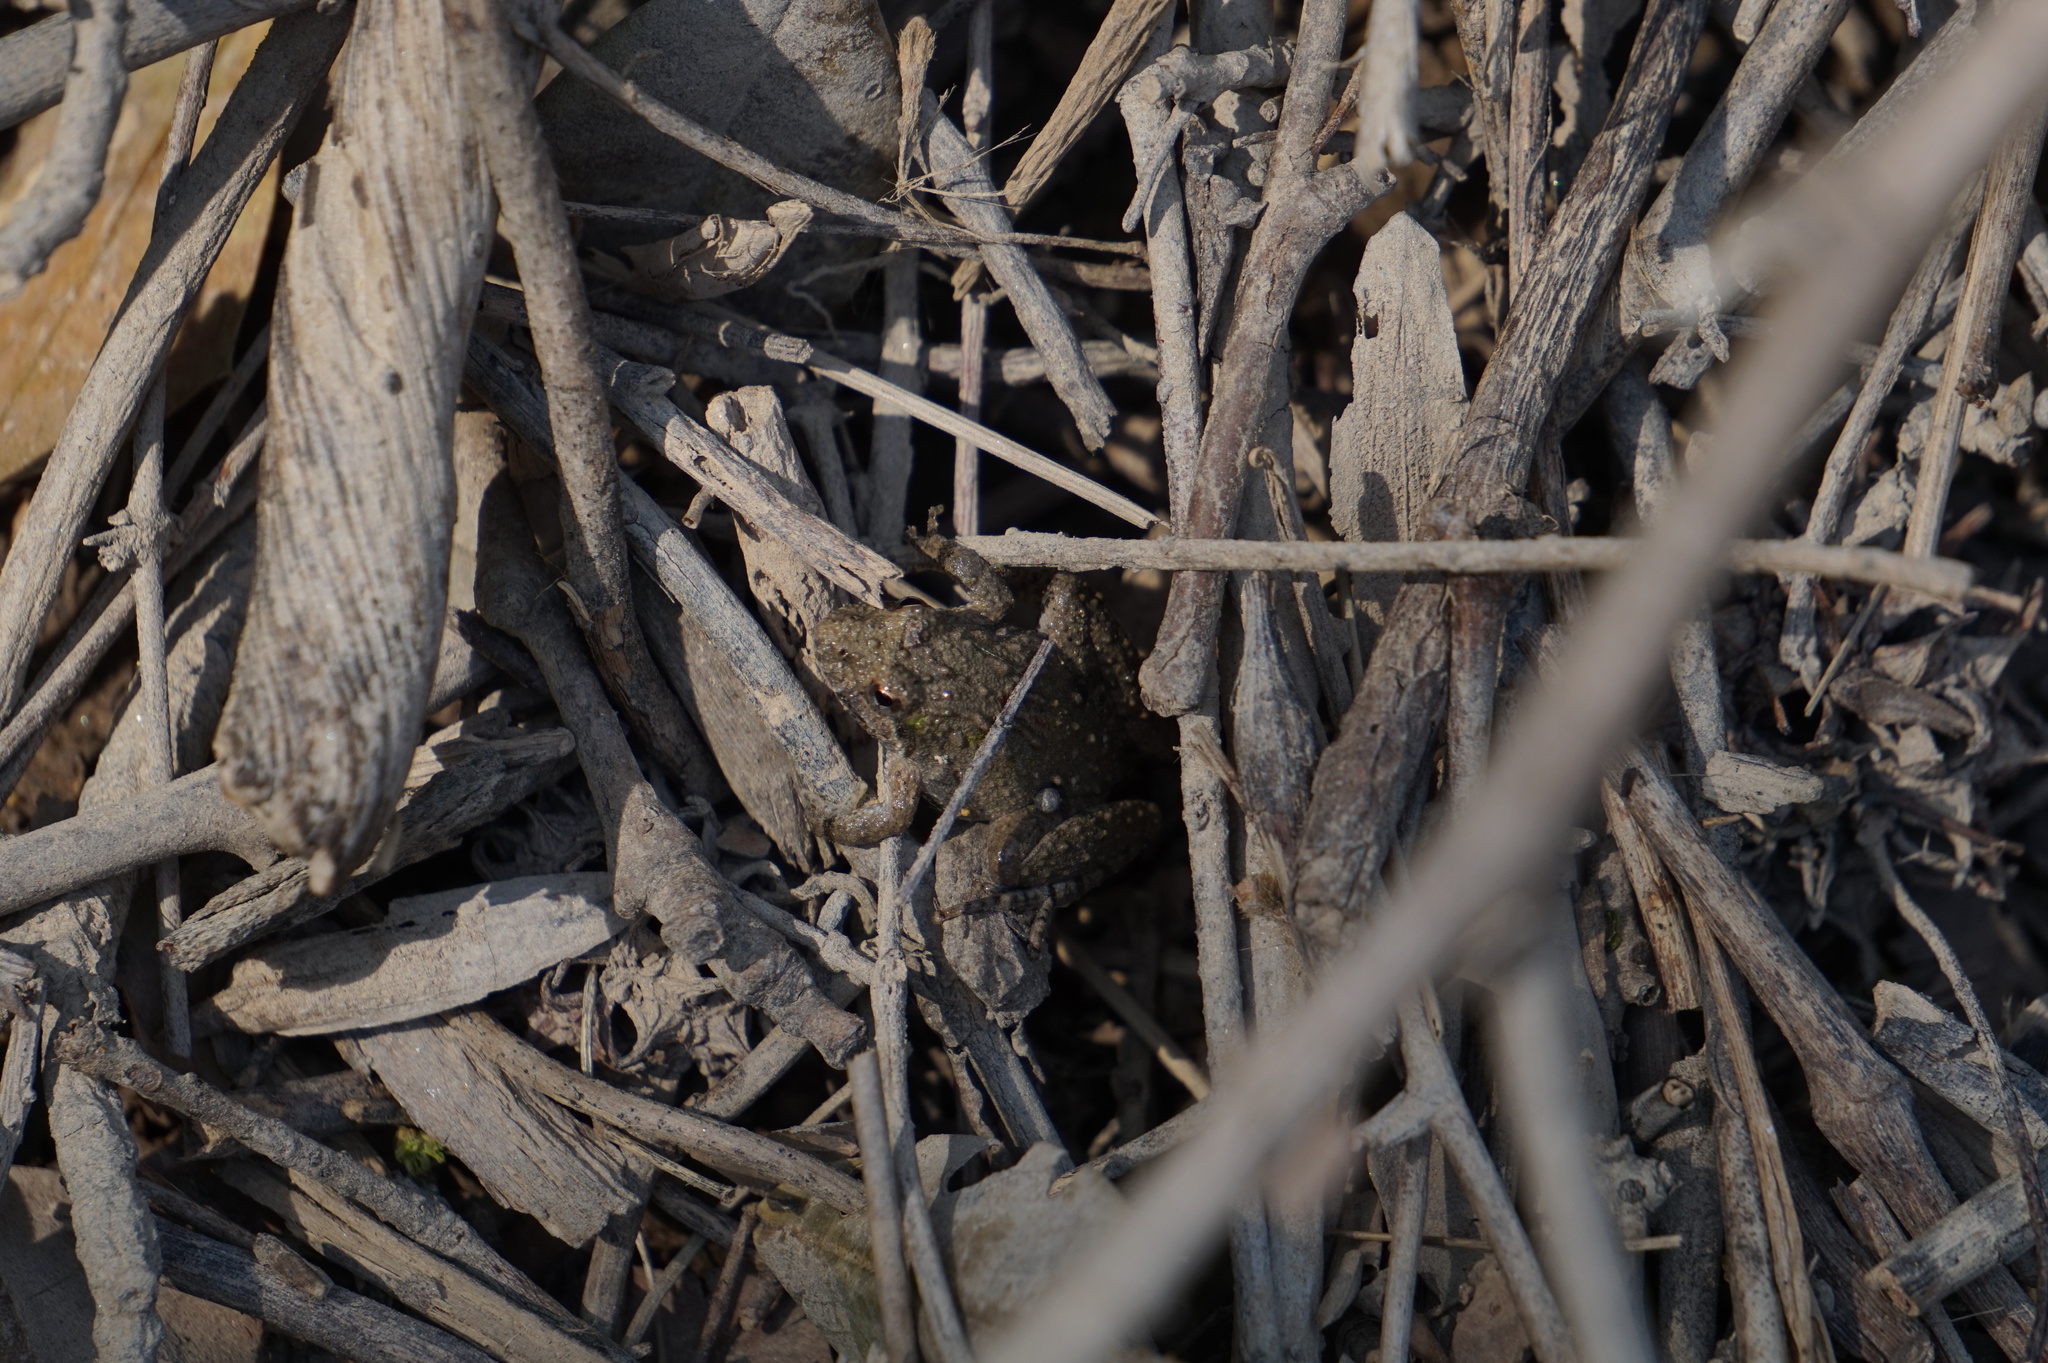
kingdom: Animalia
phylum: Chordata
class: Amphibia
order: Anura
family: Hylidae
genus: Acris
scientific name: Acris crepitans
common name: Northern cricket frog
